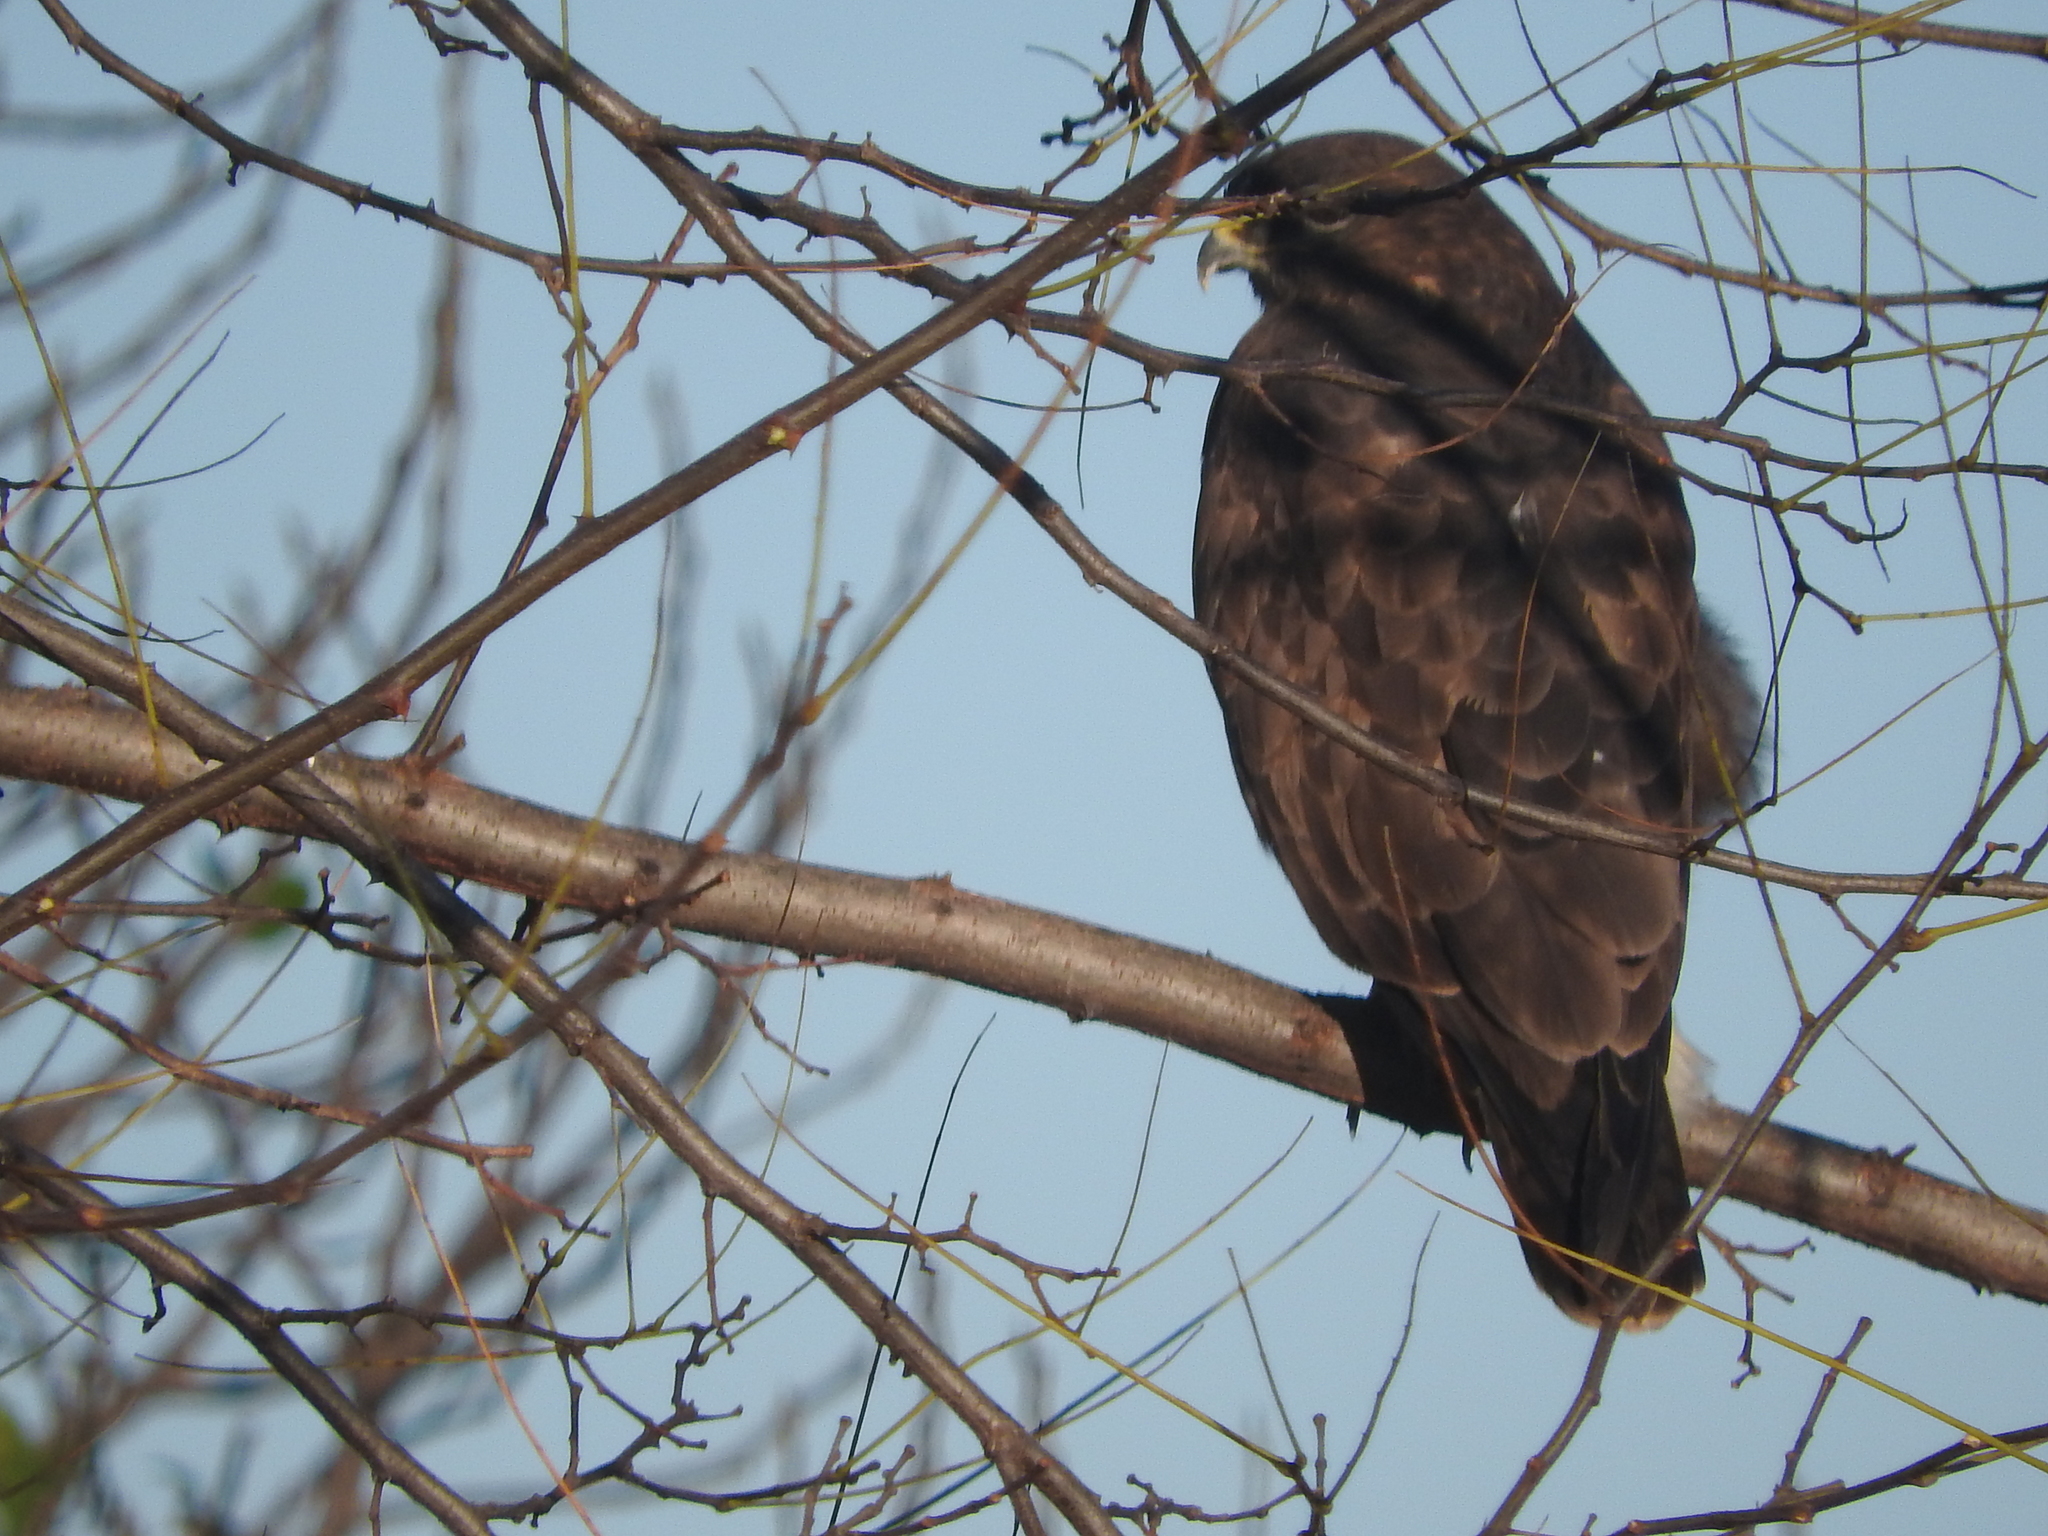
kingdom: Animalia
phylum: Chordata
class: Aves
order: Accipitriformes
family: Accipitridae
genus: Buteo
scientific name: Buteo buteo
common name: Common buzzard
